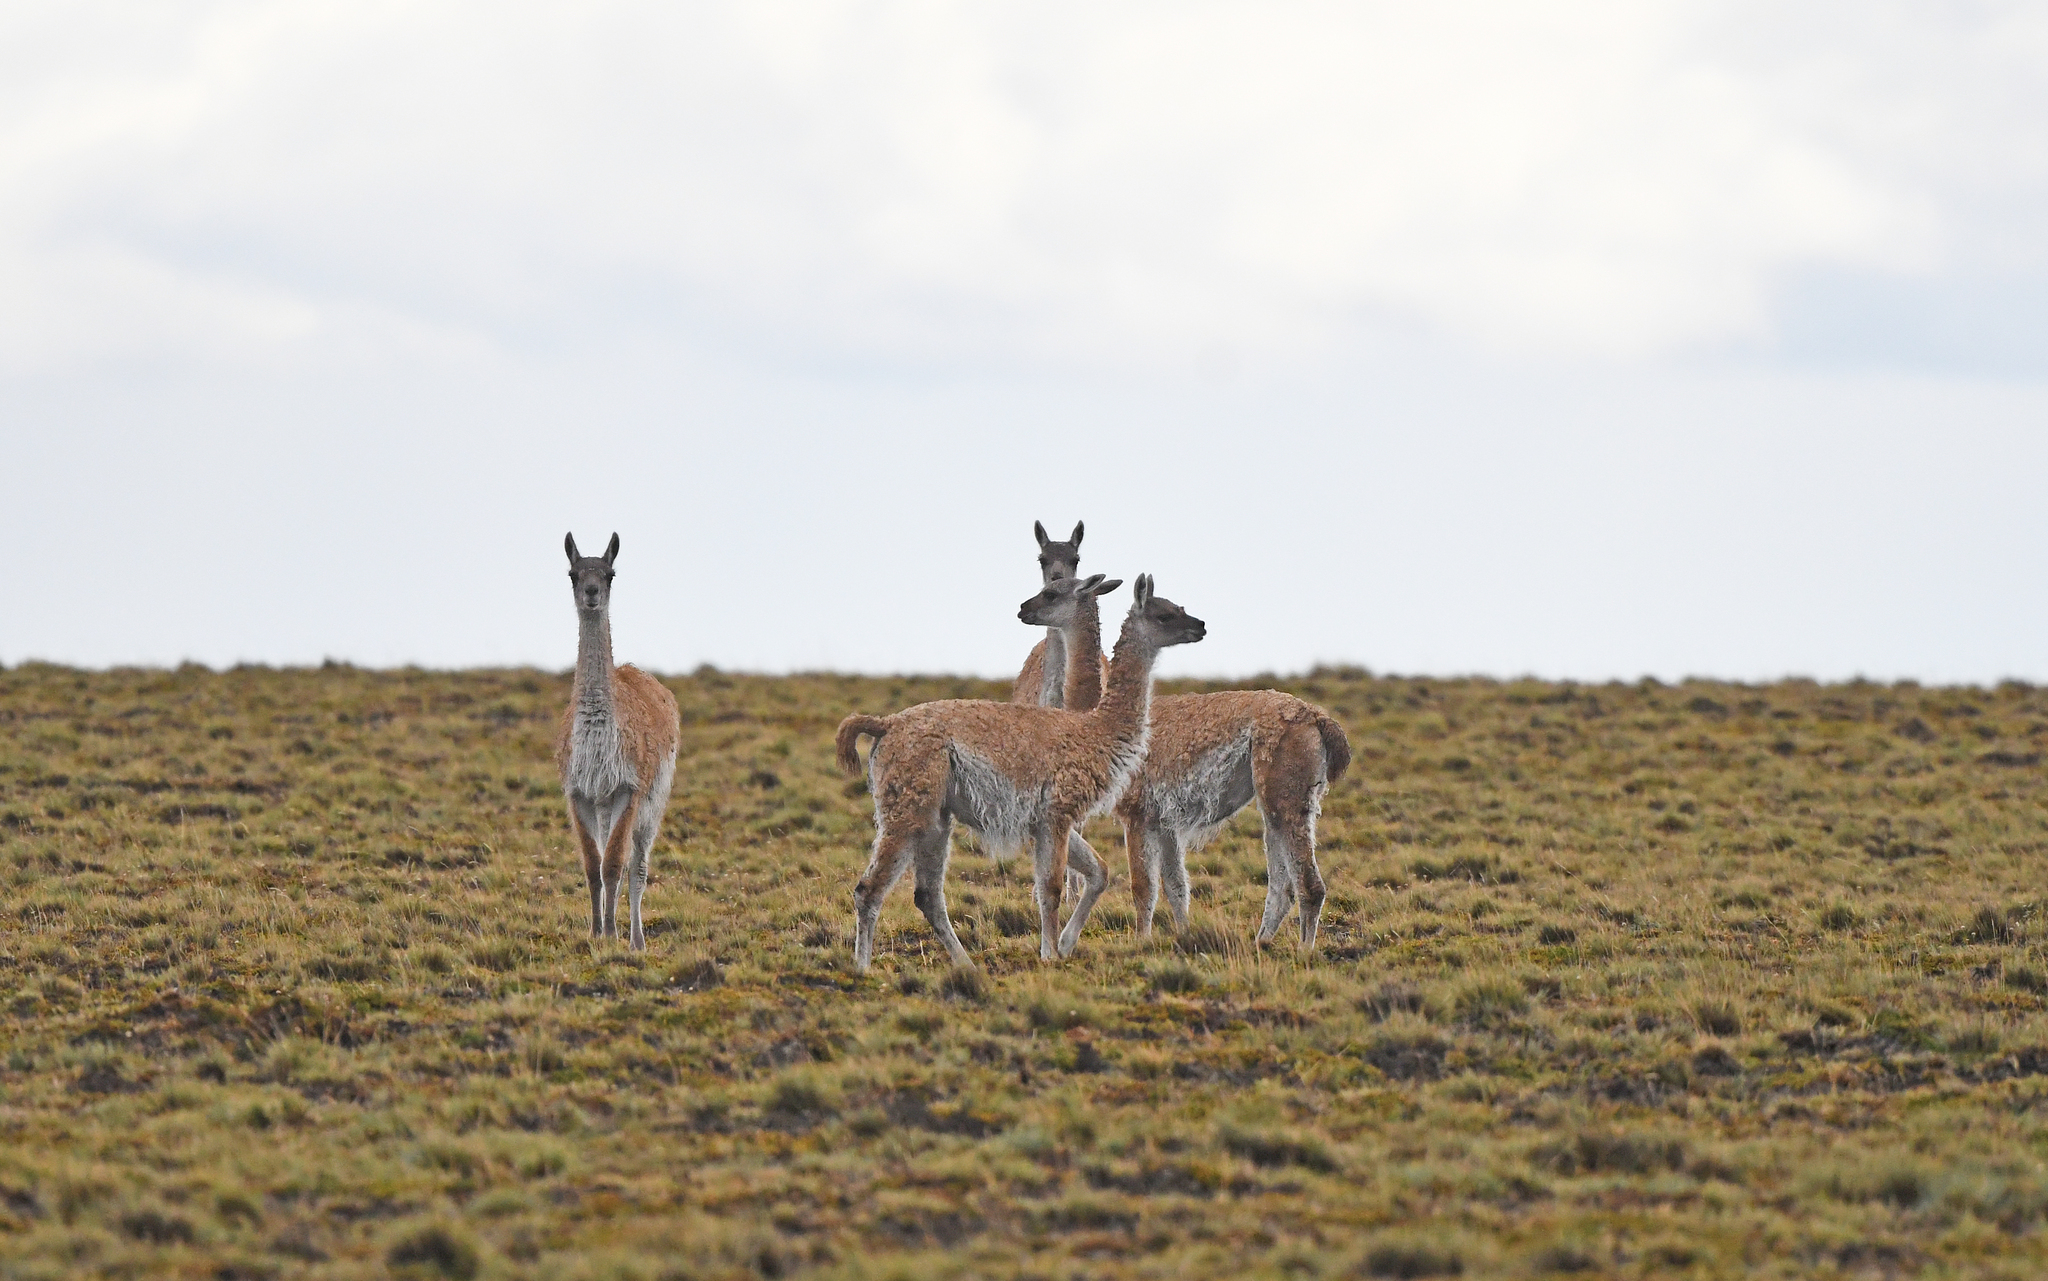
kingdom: Animalia
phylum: Chordata
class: Mammalia
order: Artiodactyla
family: Camelidae
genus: Lama
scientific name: Lama glama
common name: Llama
